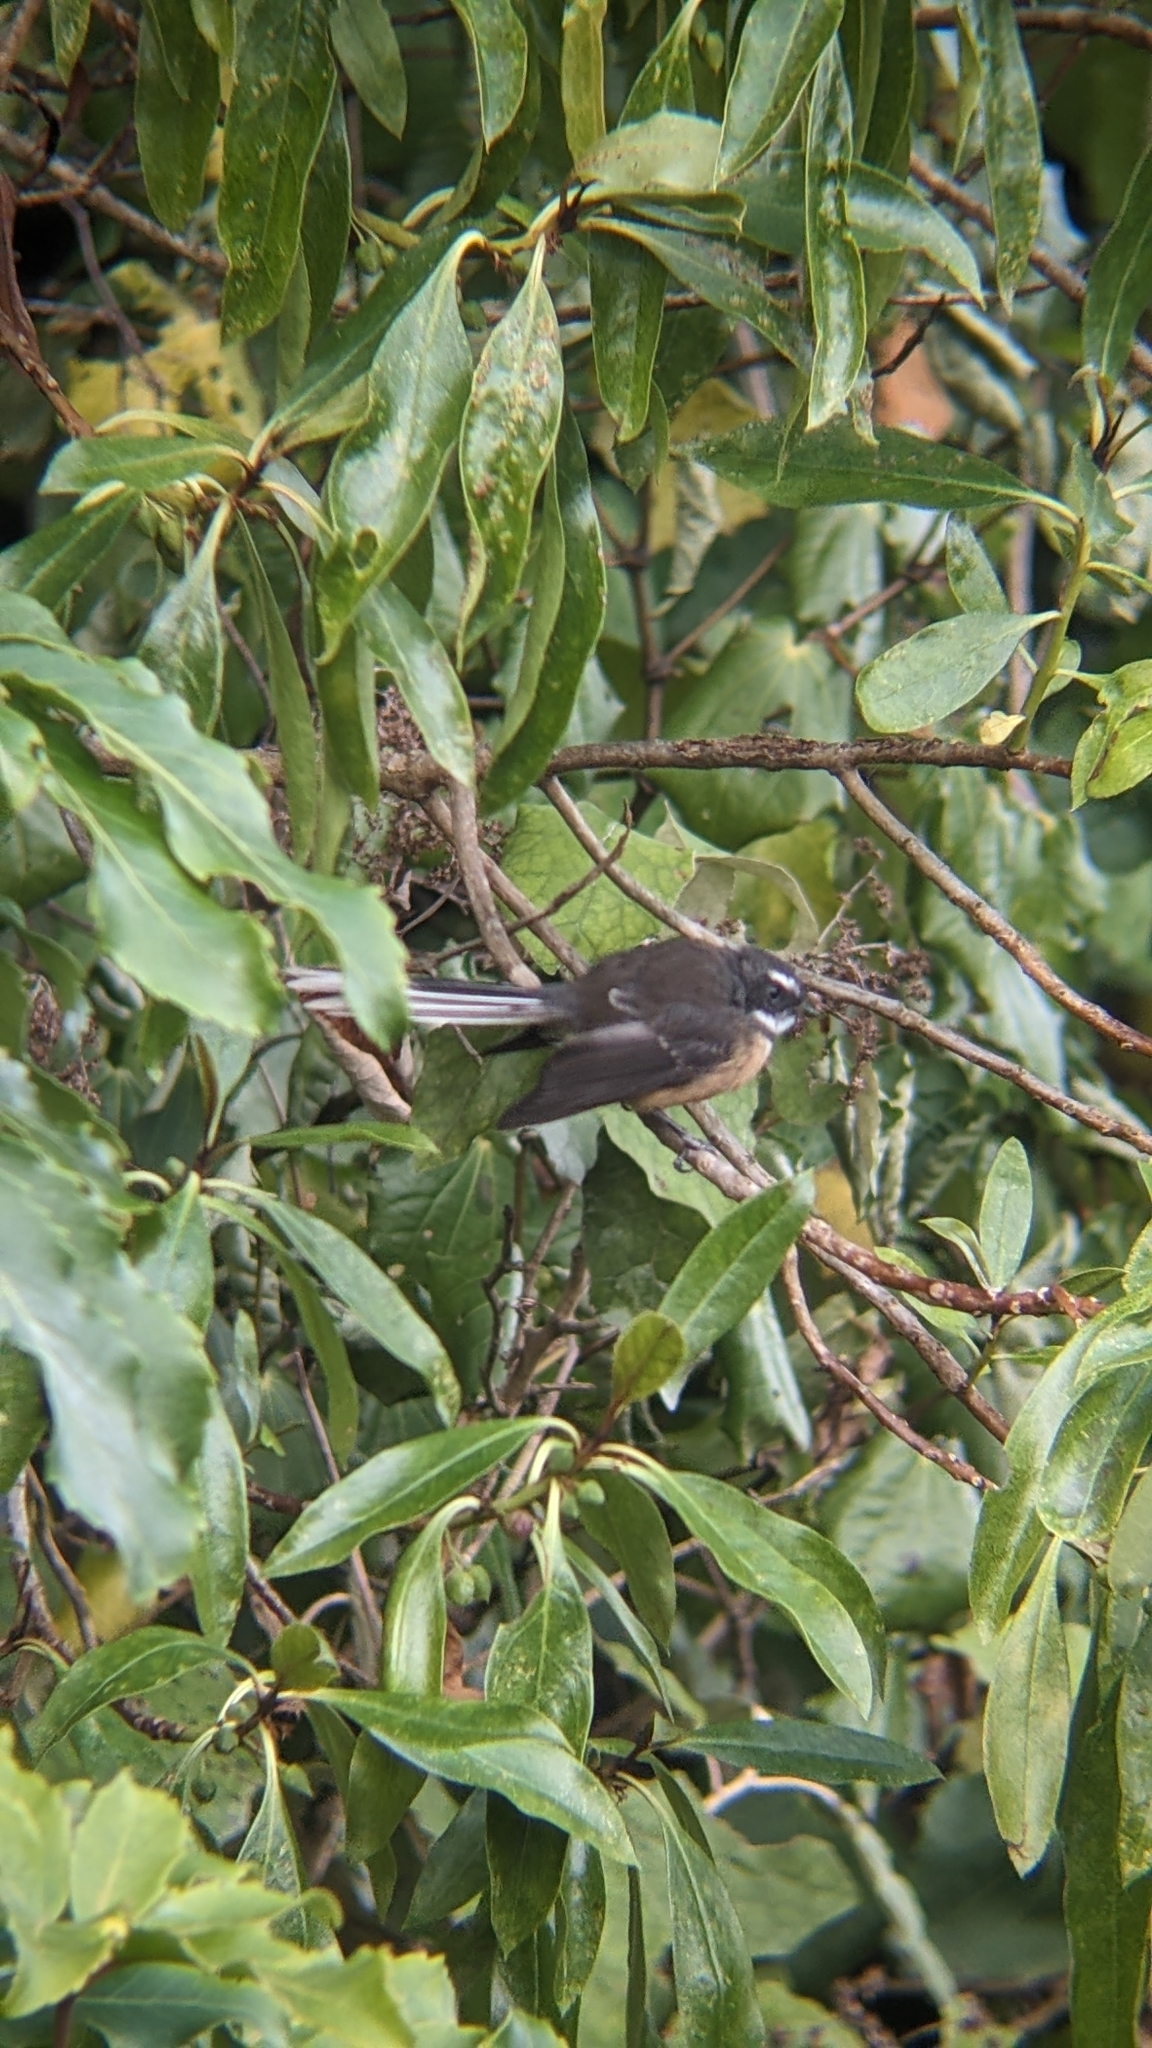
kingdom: Animalia
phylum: Chordata
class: Aves
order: Passeriformes
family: Rhipiduridae
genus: Rhipidura
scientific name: Rhipidura fuliginosa
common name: New zealand fantail
